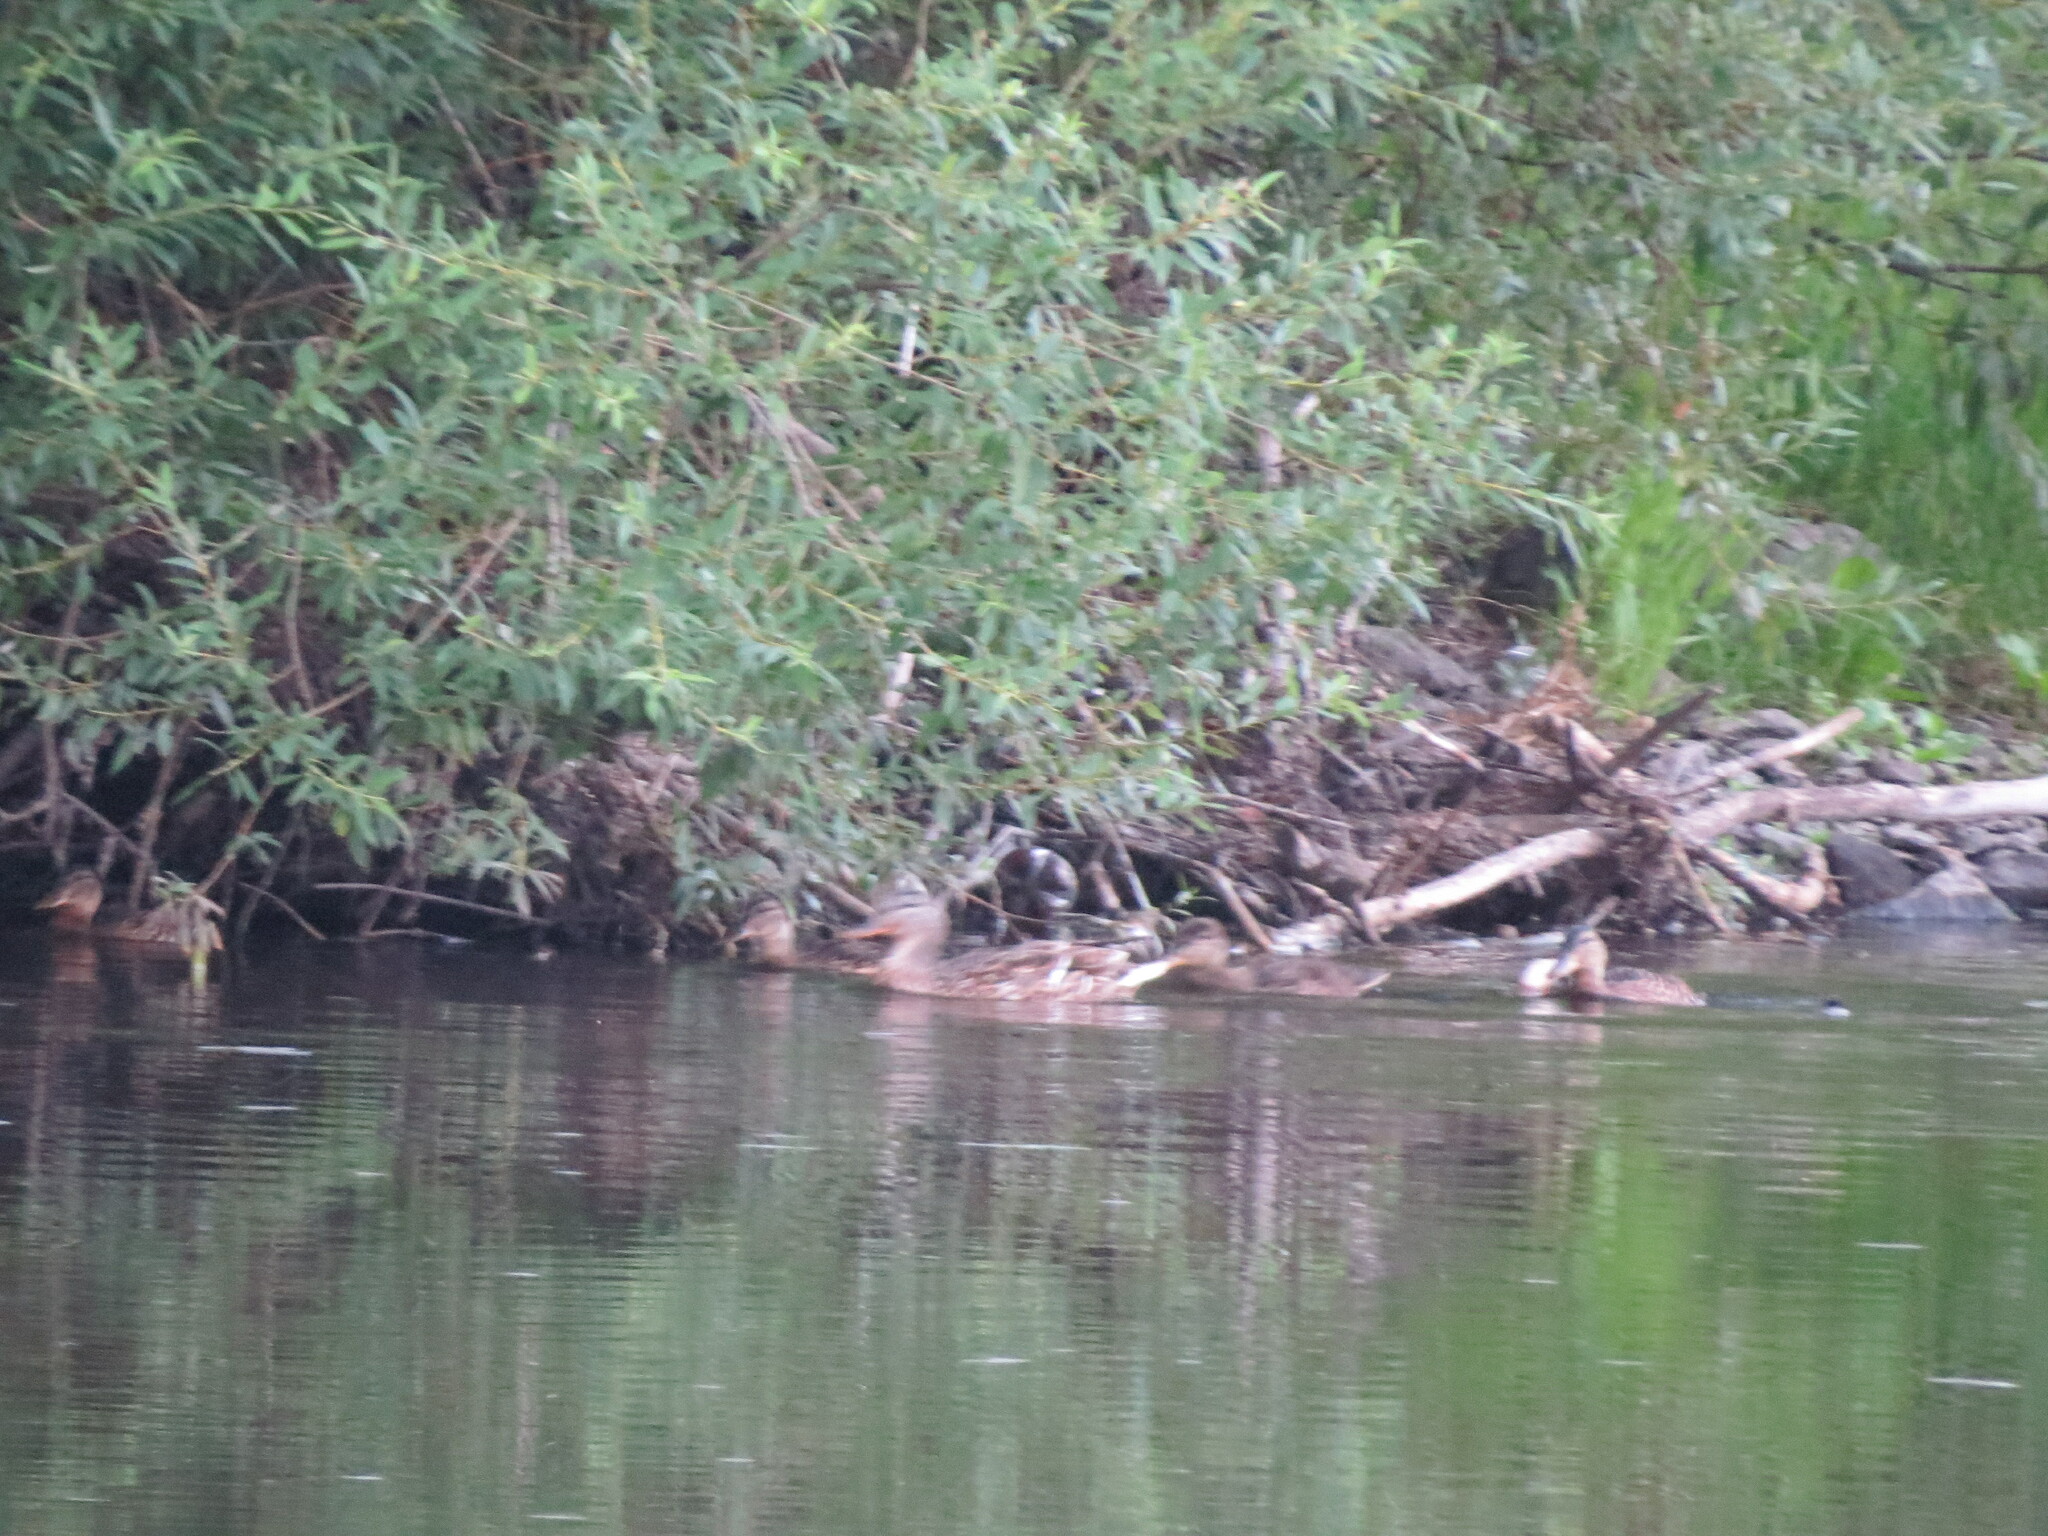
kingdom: Animalia
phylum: Chordata
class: Aves
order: Anseriformes
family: Anatidae
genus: Anas
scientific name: Anas platyrhynchos
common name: Mallard
